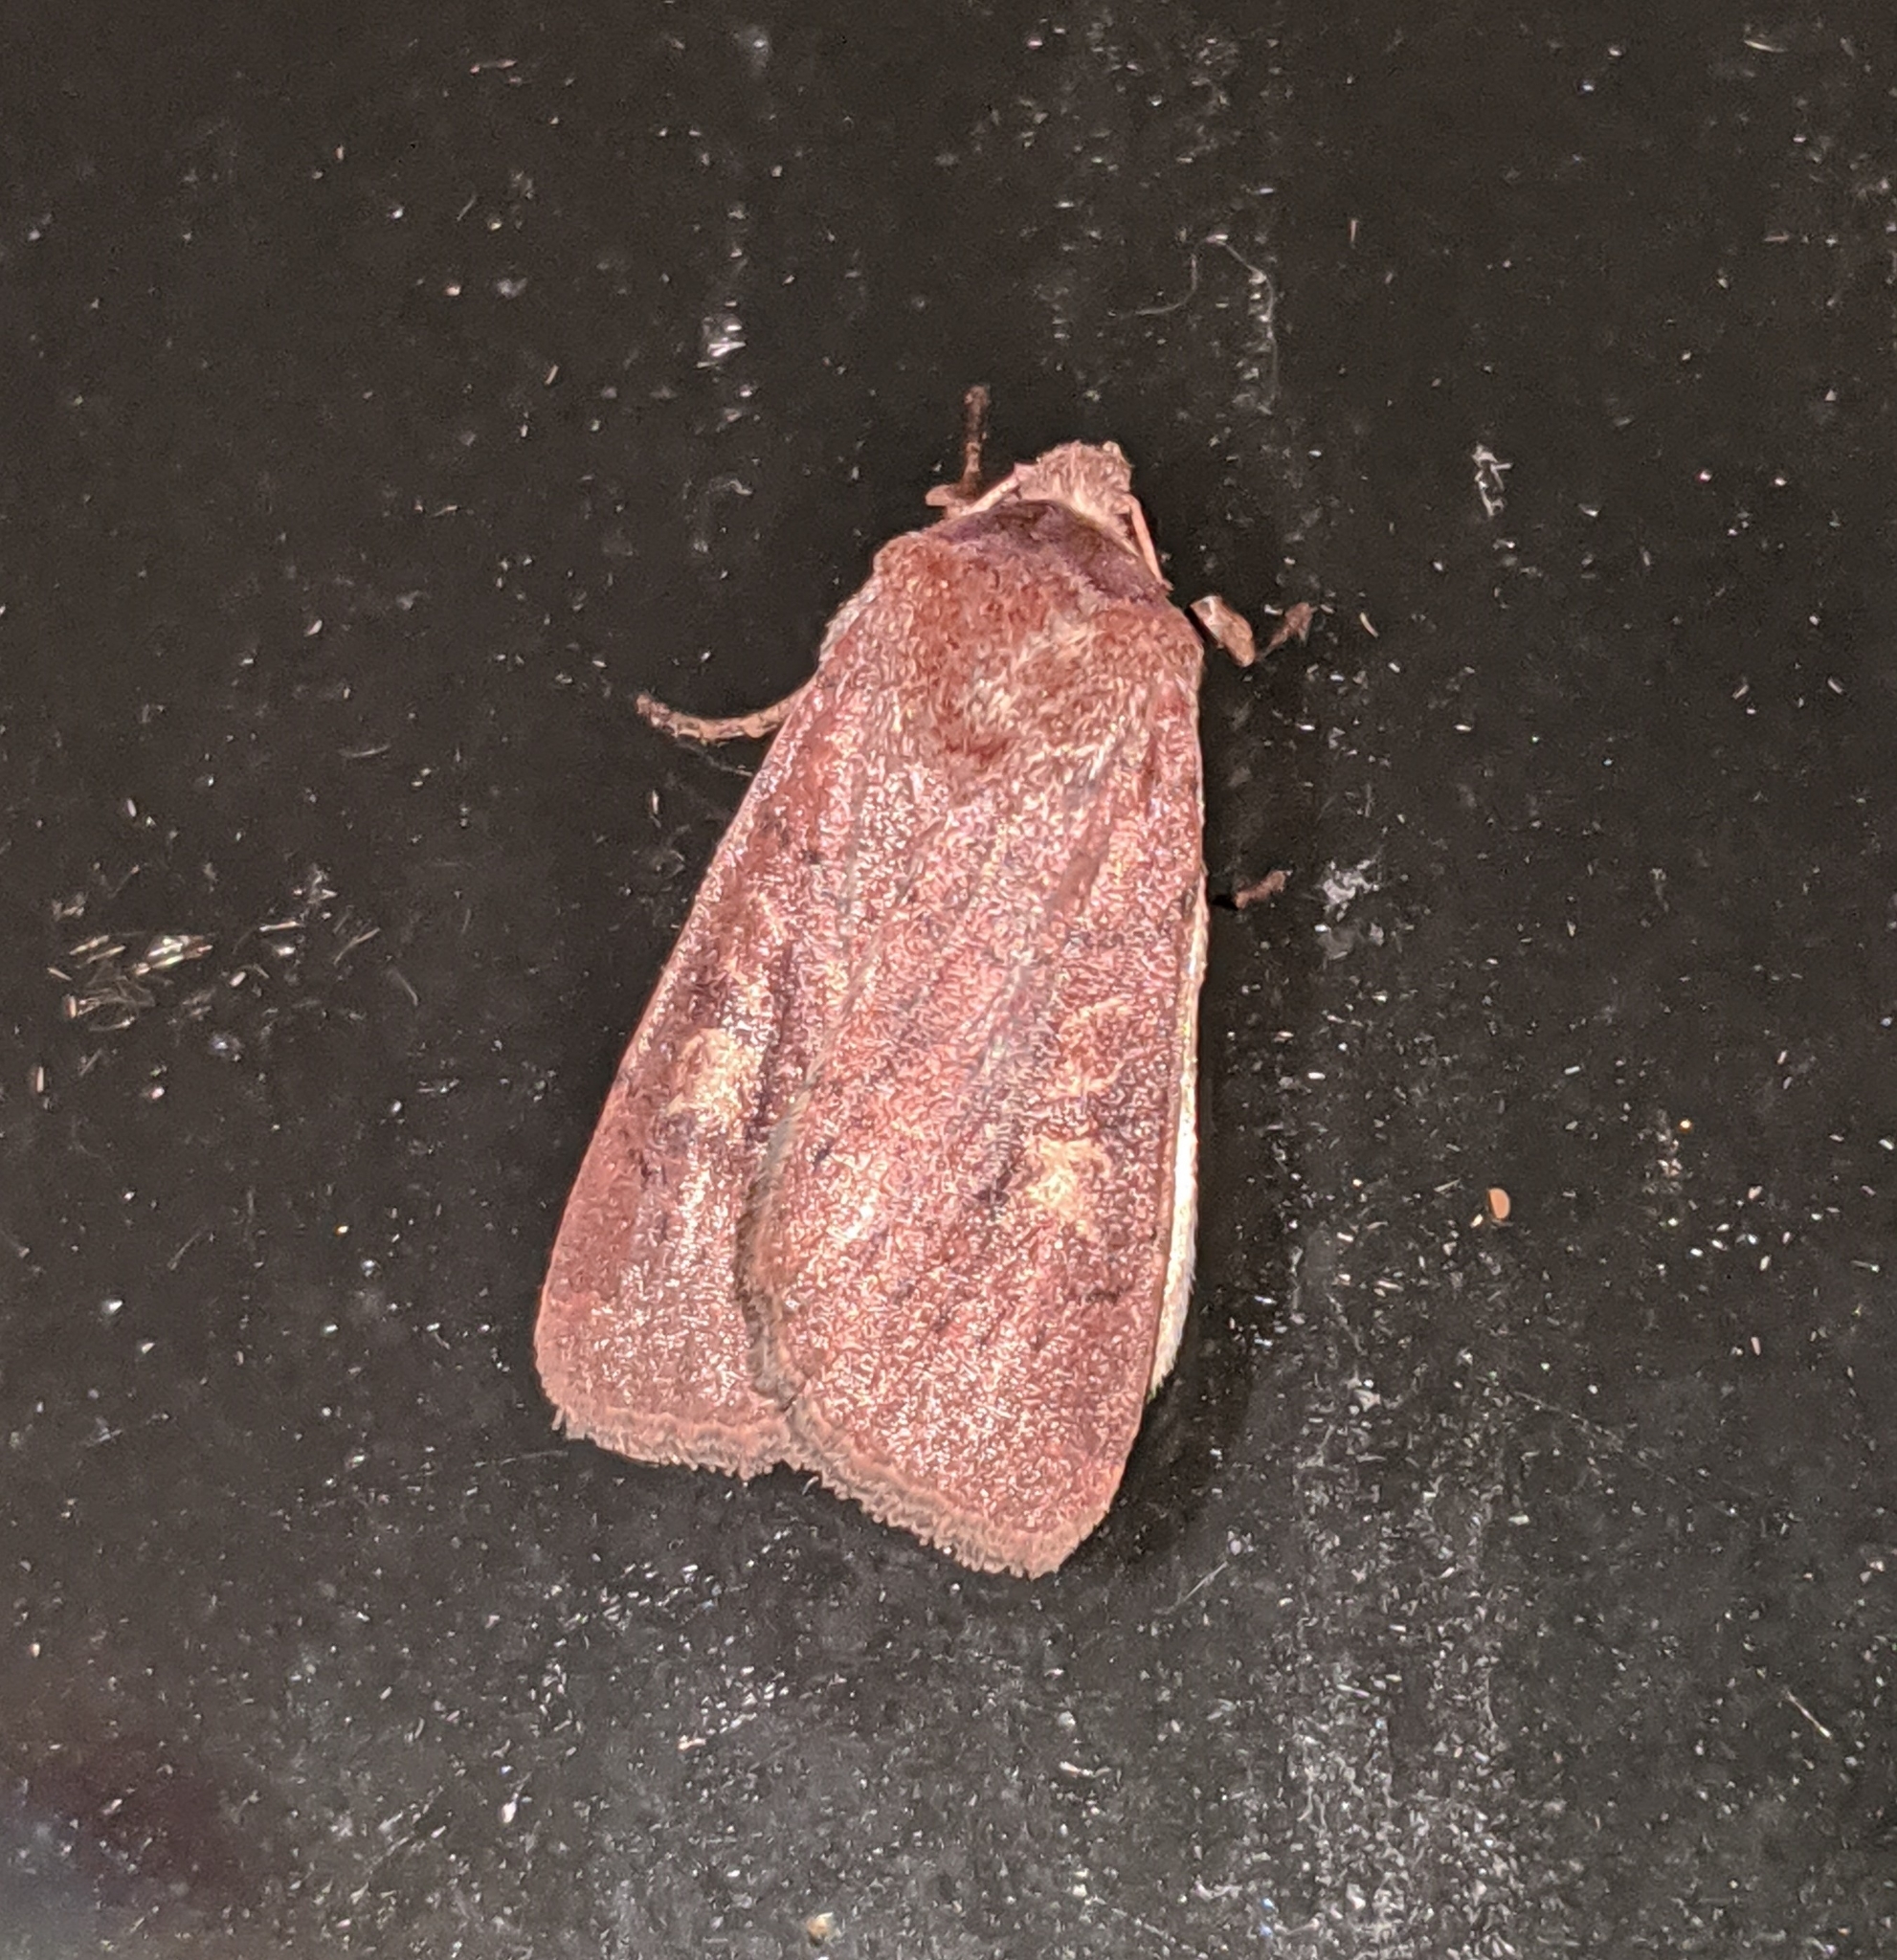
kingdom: Animalia
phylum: Arthropoda
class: Insecta
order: Lepidoptera
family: Noctuidae
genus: Xestia
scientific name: Xestia xanthographa
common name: Square-spot rustic
